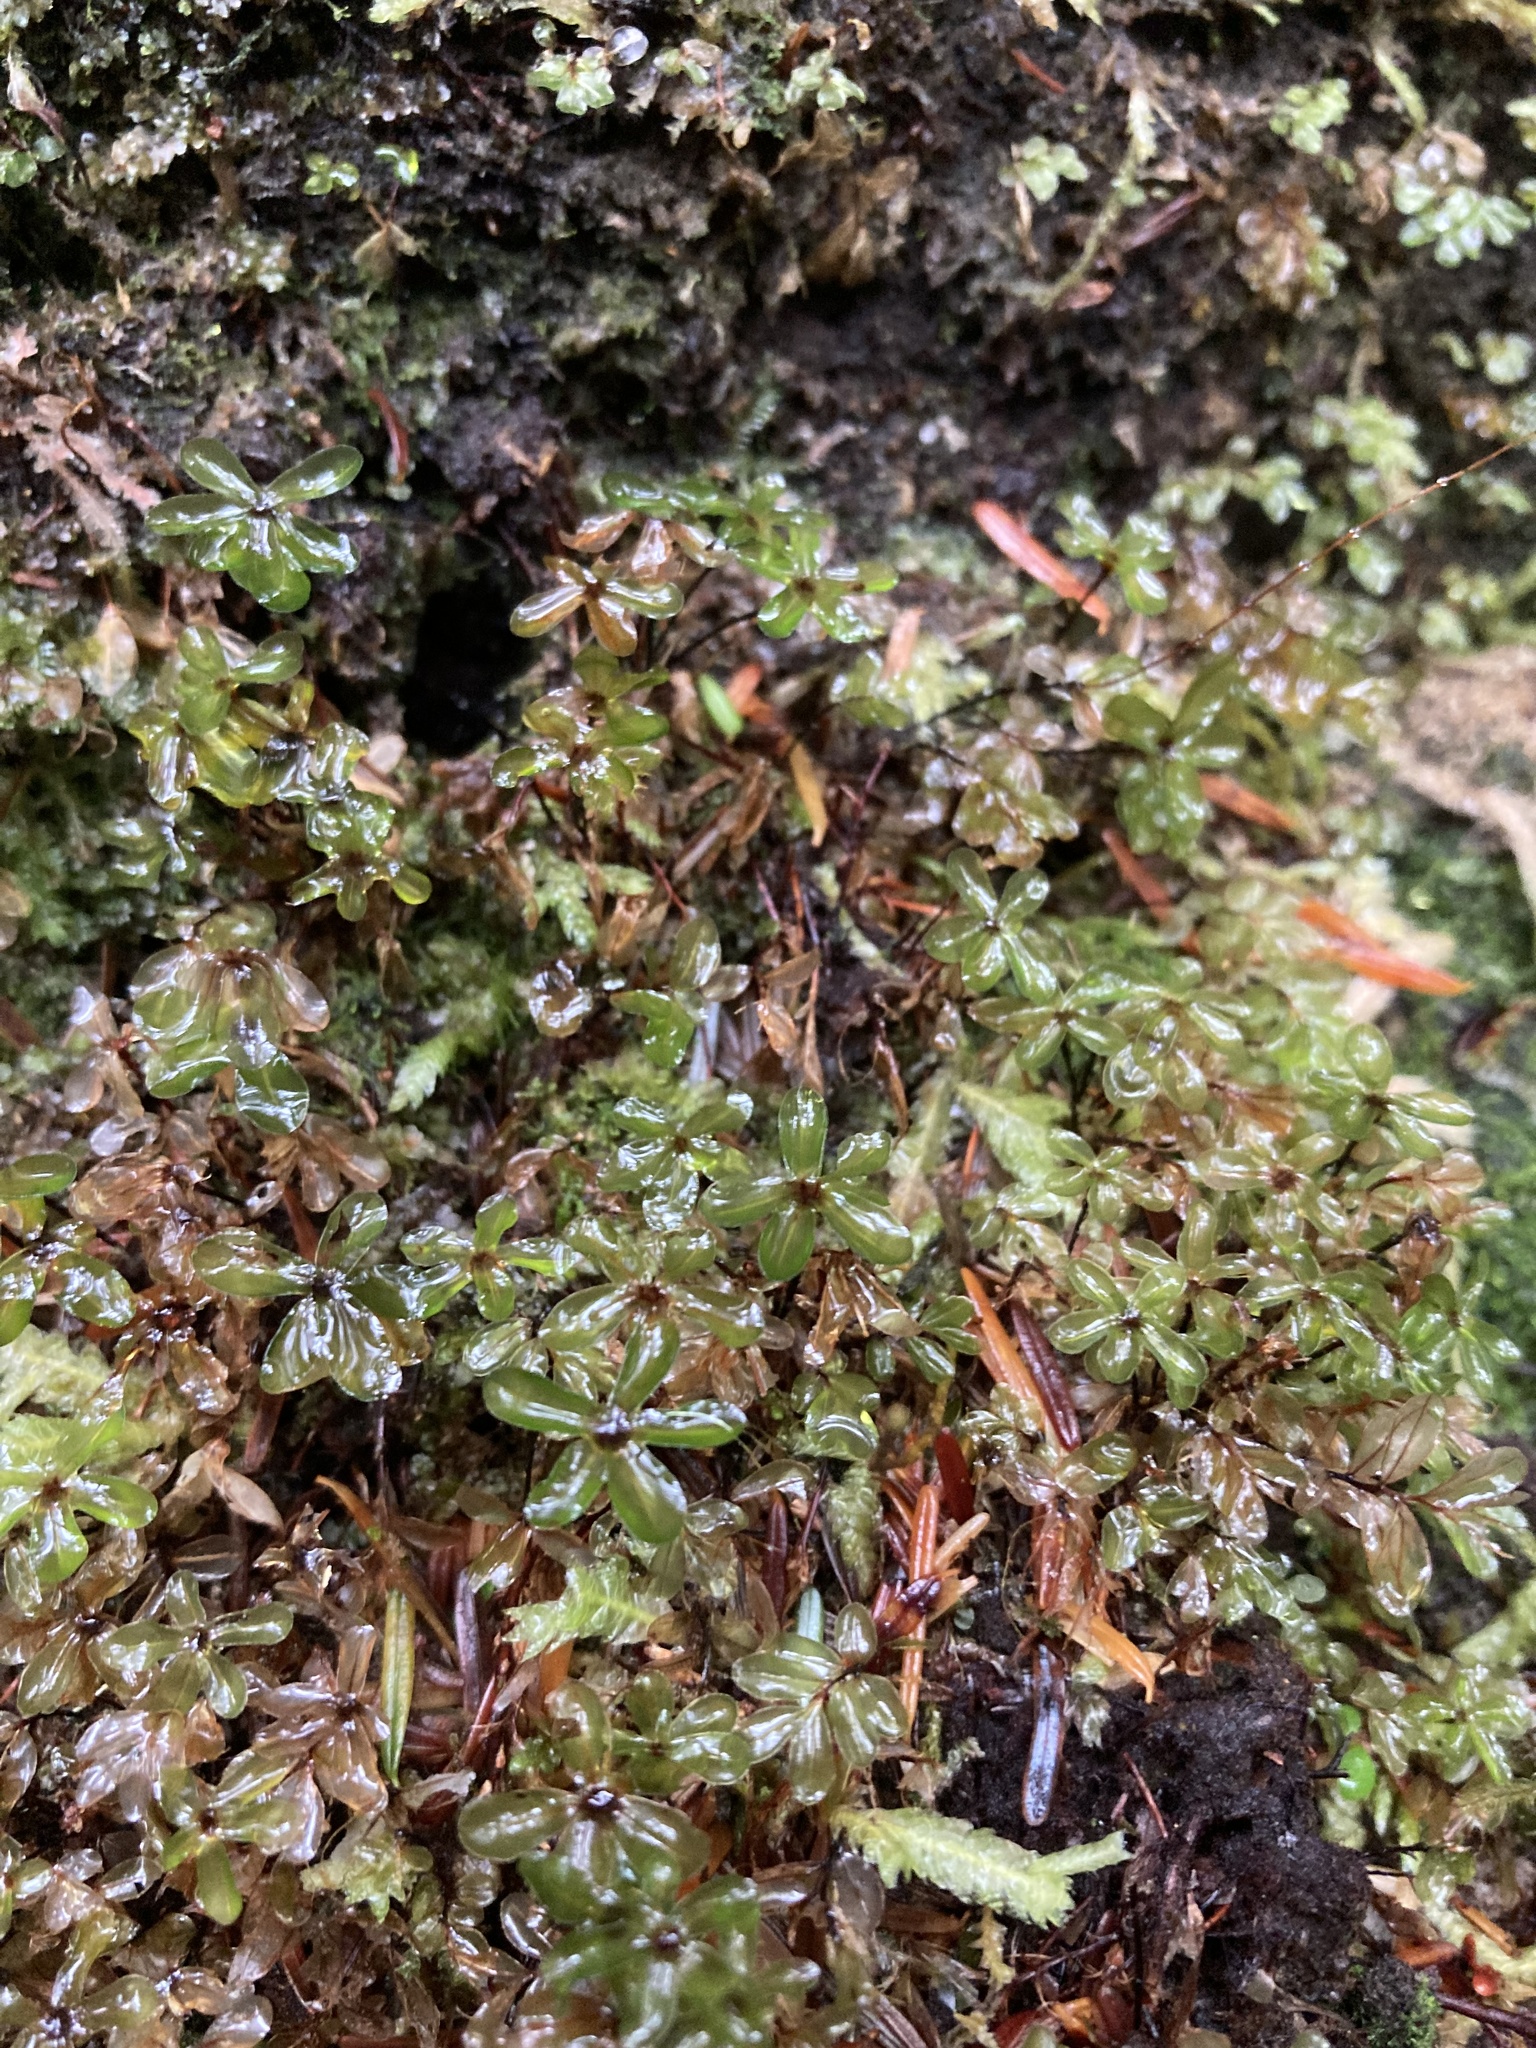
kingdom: Plantae
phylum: Bryophyta
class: Bryopsida
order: Bryales
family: Mniaceae
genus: Rhizomnium
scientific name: Rhizomnium glabrescens
